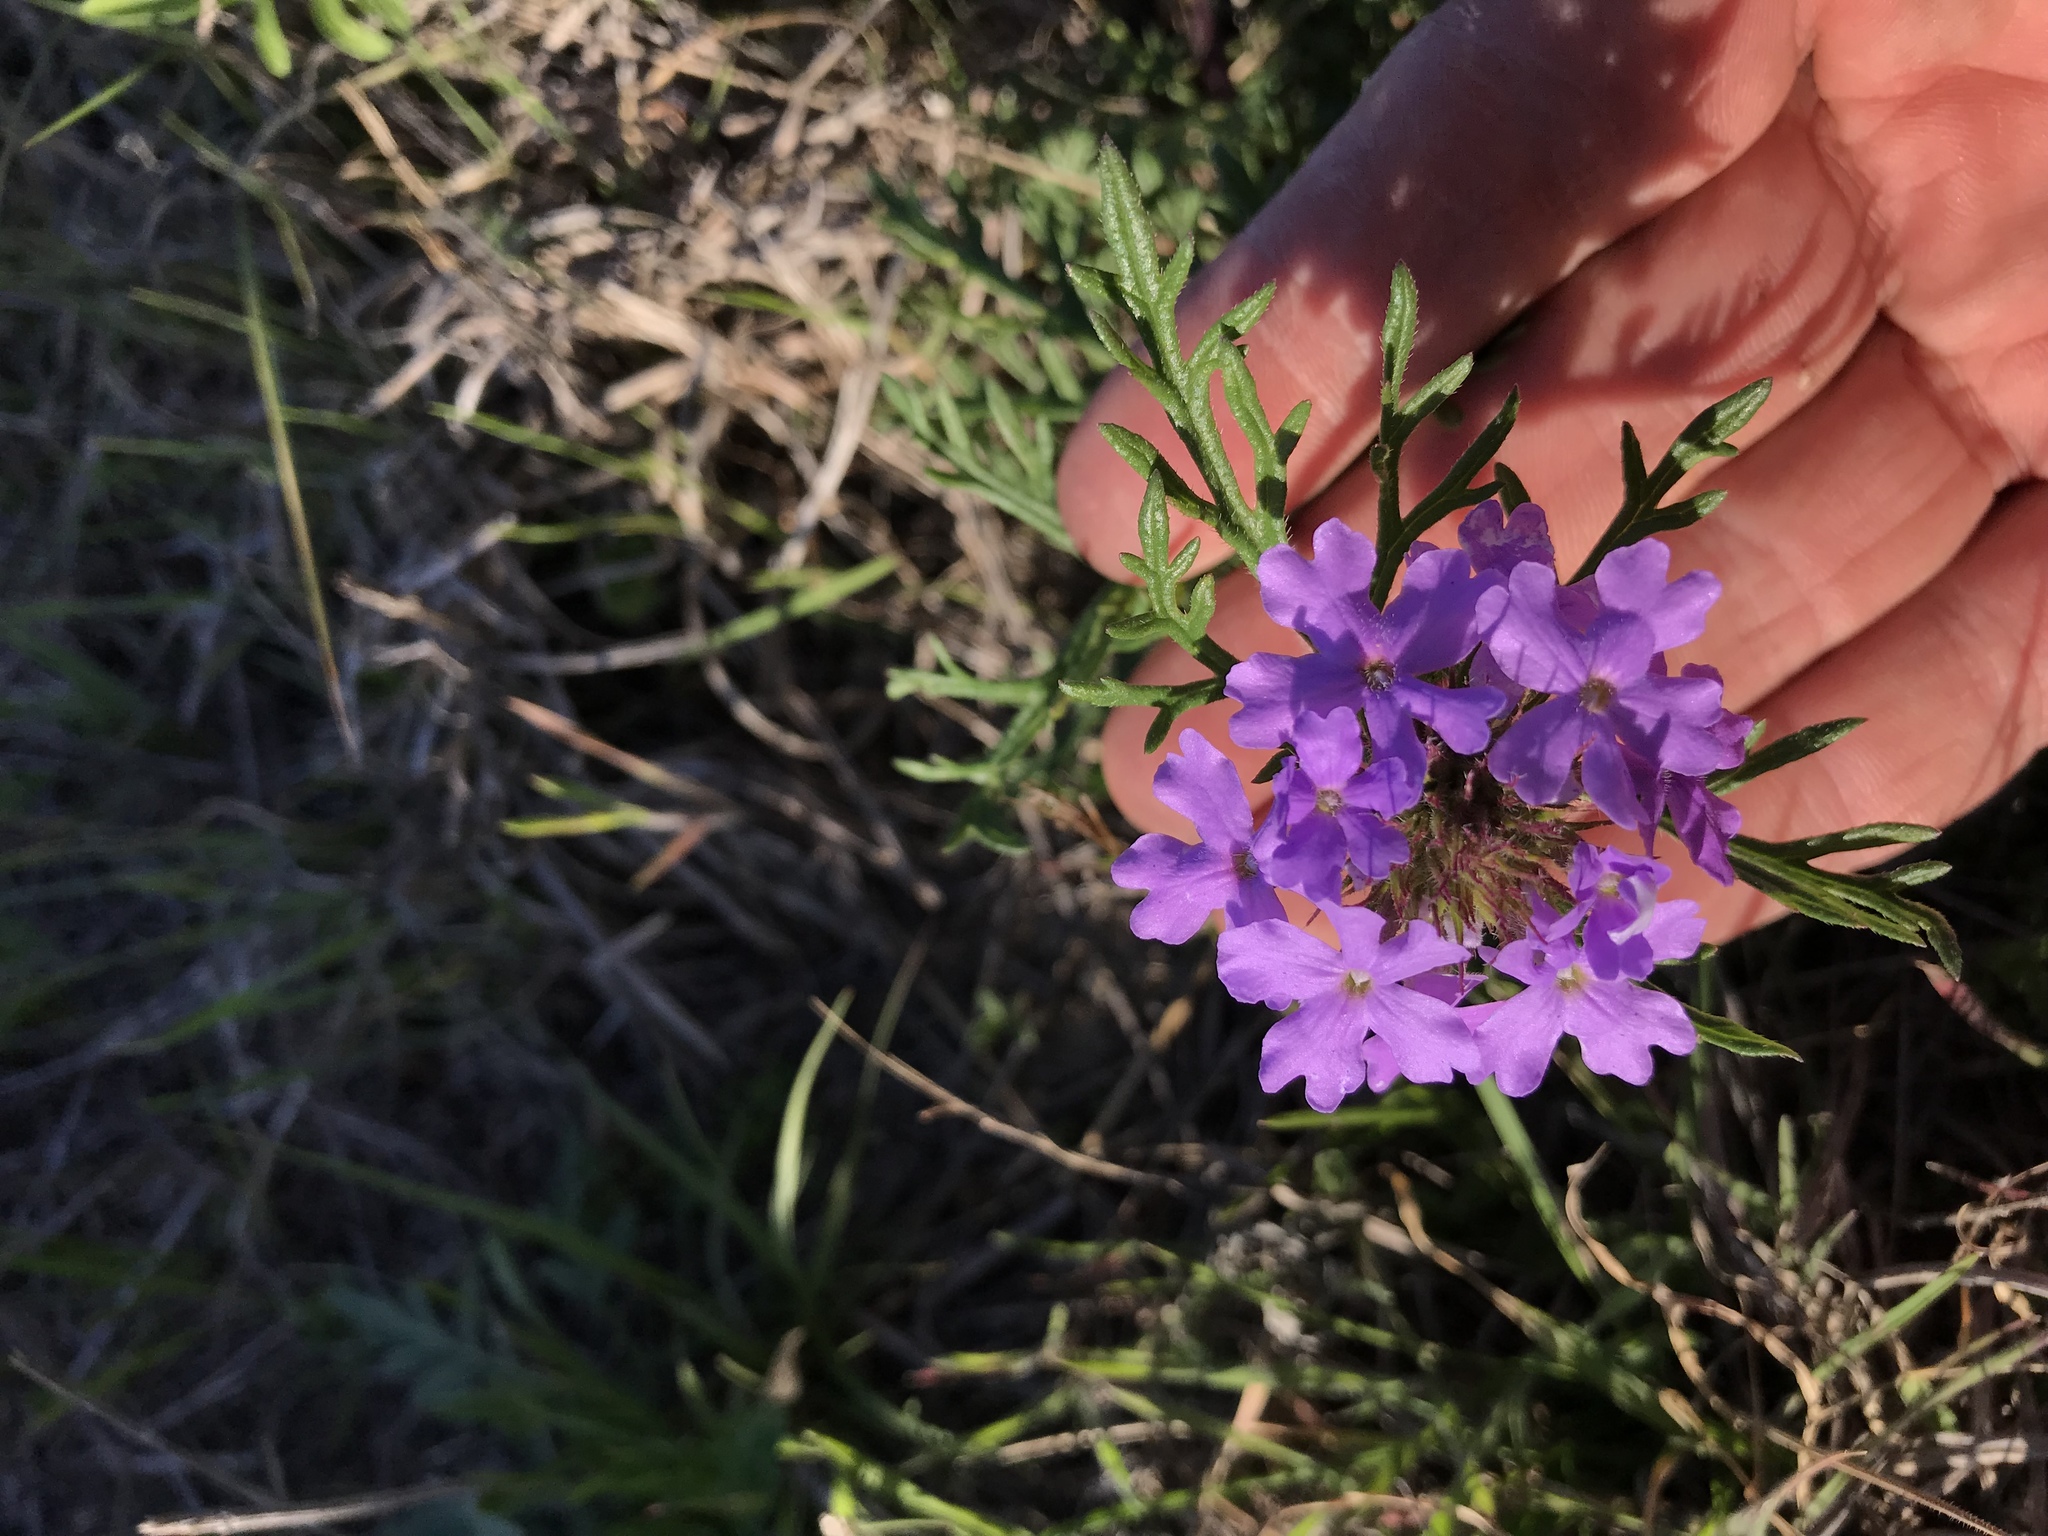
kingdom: Plantae
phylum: Tracheophyta
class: Magnoliopsida
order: Lamiales
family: Verbenaceae
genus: Verbena
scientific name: Verbena bipinnatifida
